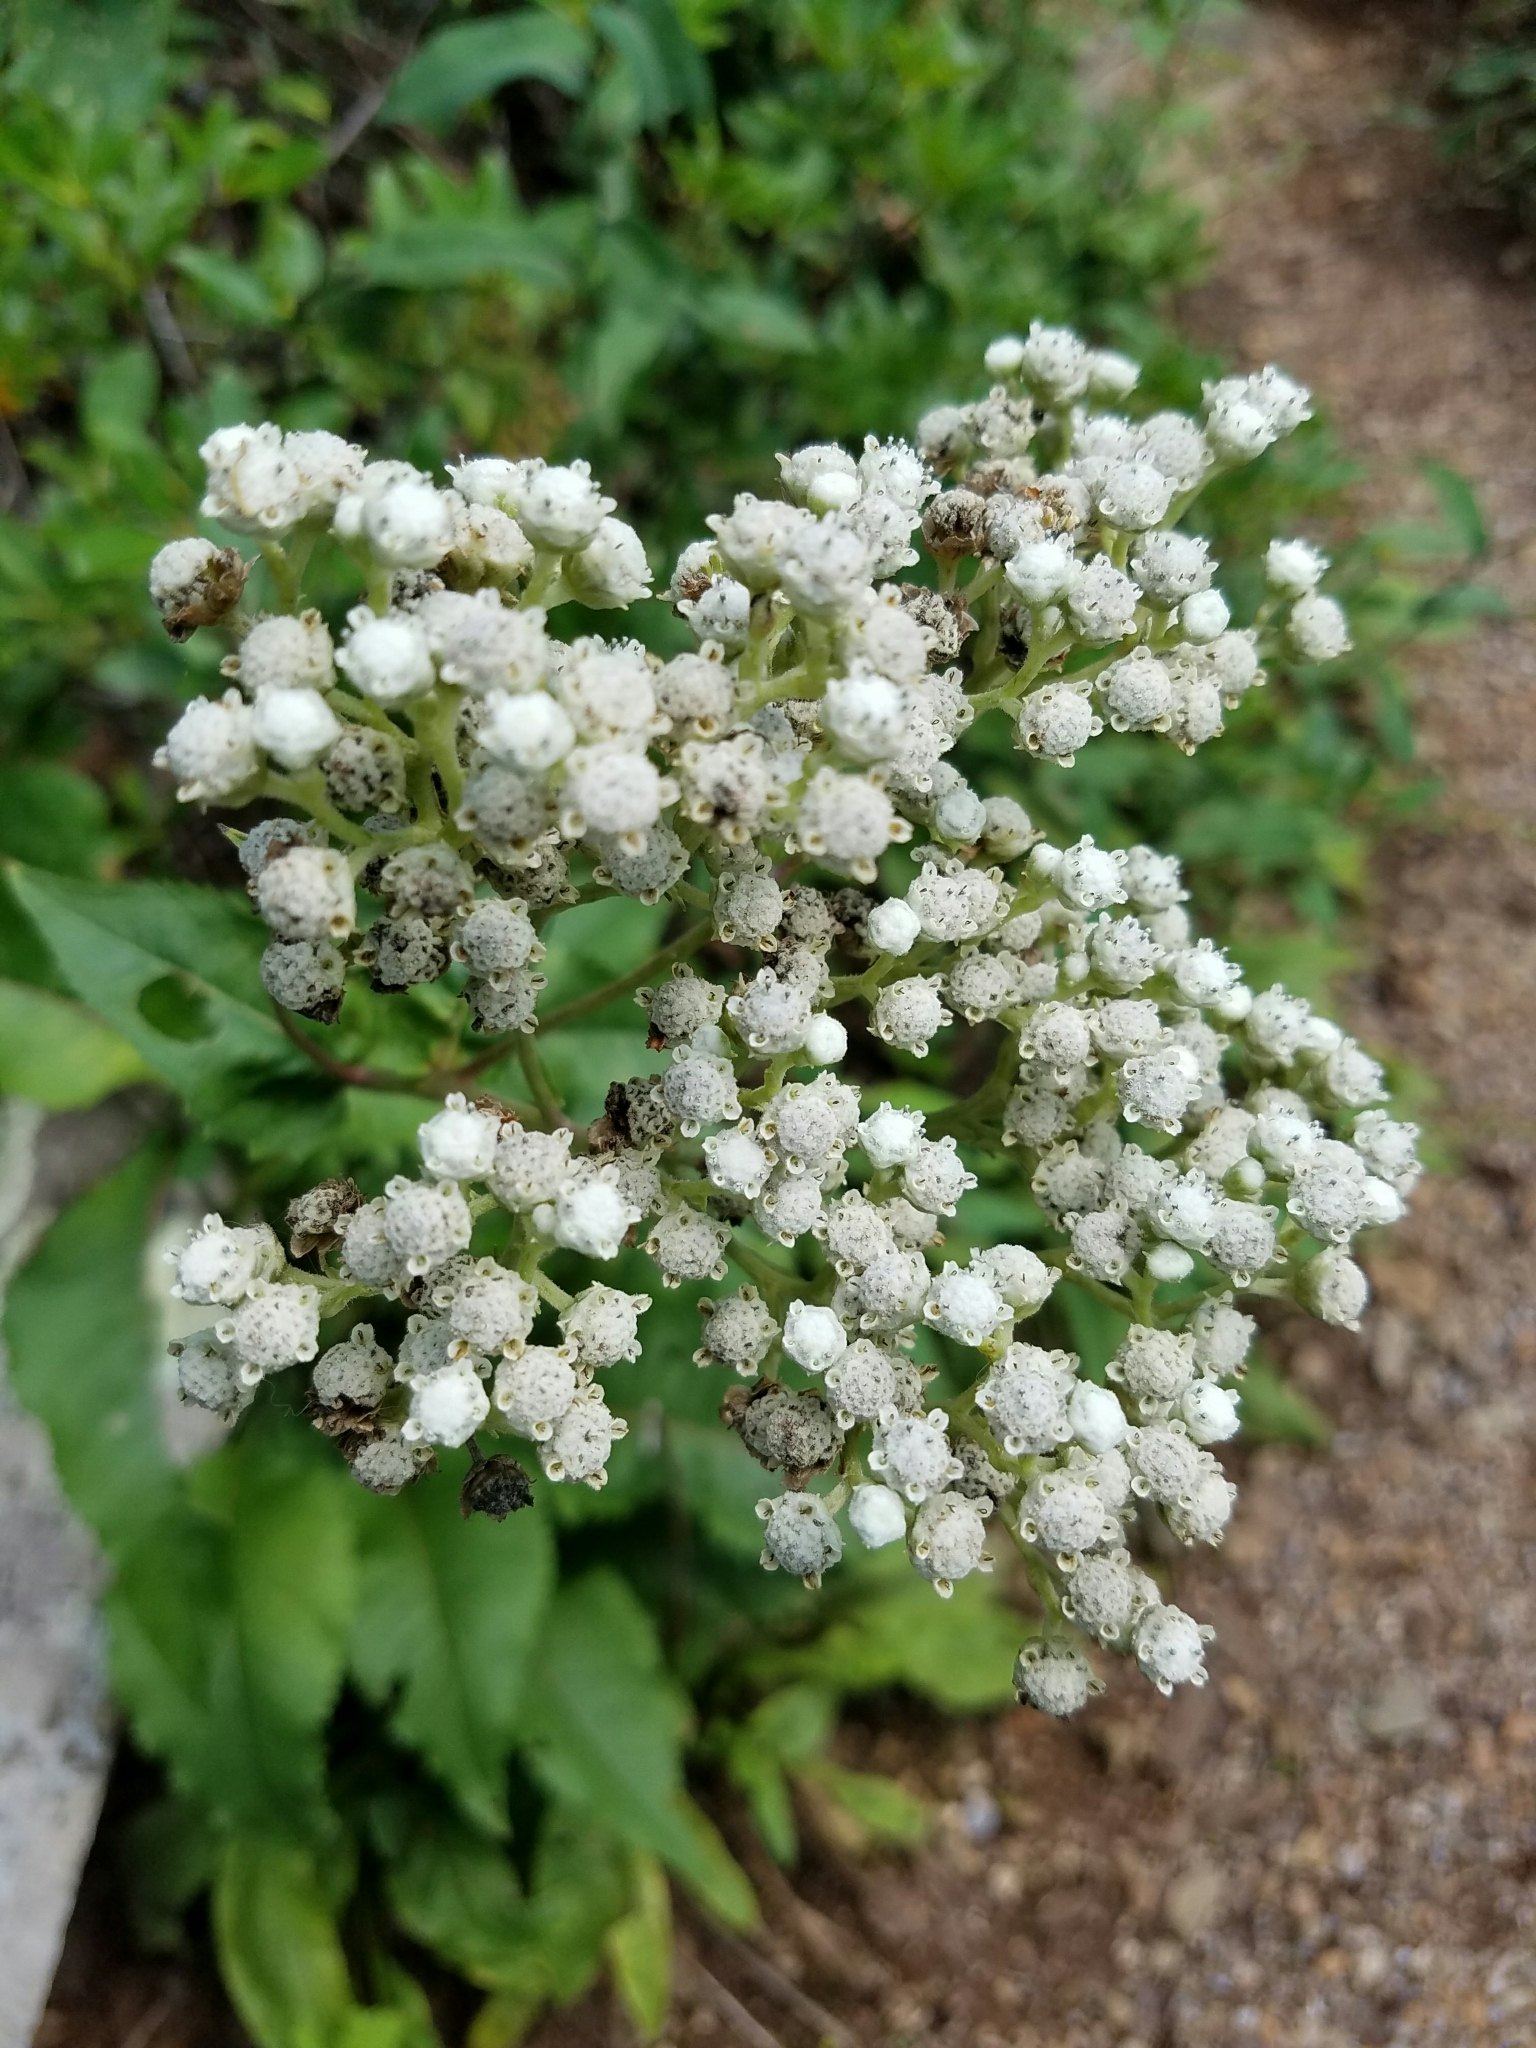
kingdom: Plantae
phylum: Tracheophyta
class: Magnoliopsida
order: Asterales
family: Asteraceae
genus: Parthenium
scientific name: Parthenium integrifolium
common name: American feverfew
